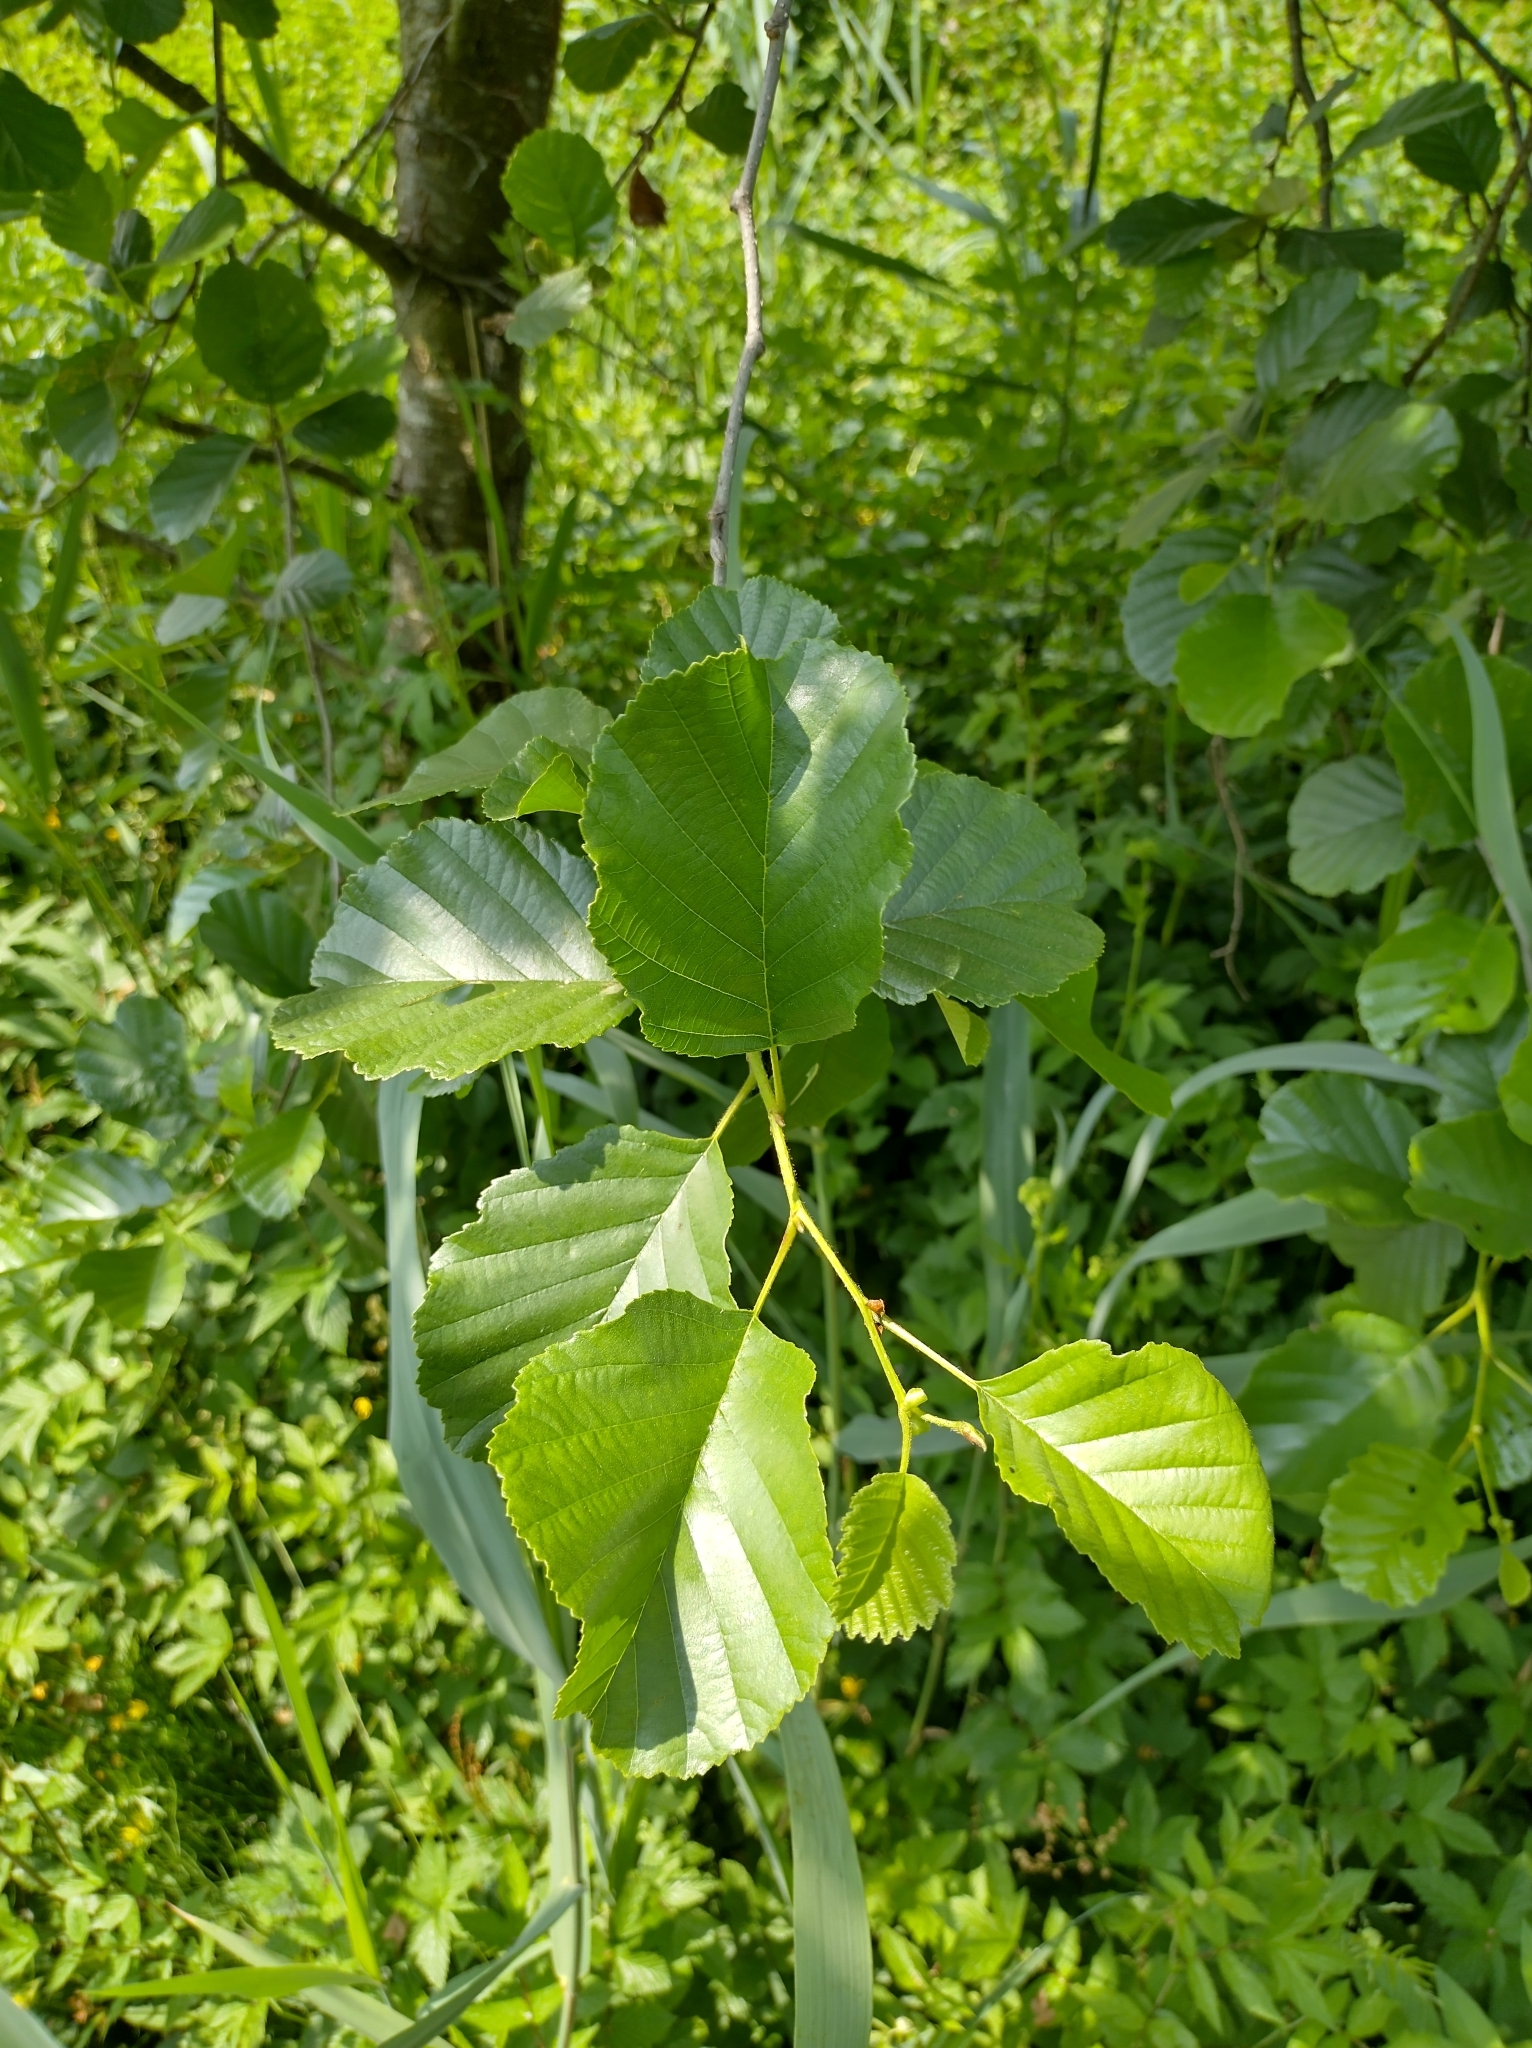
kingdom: Plantae
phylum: Tracheophyta
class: Magnoliopsida
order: Fagales
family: Betulaceae
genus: Alnus
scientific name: Alnus glutinosa
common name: Black alder
